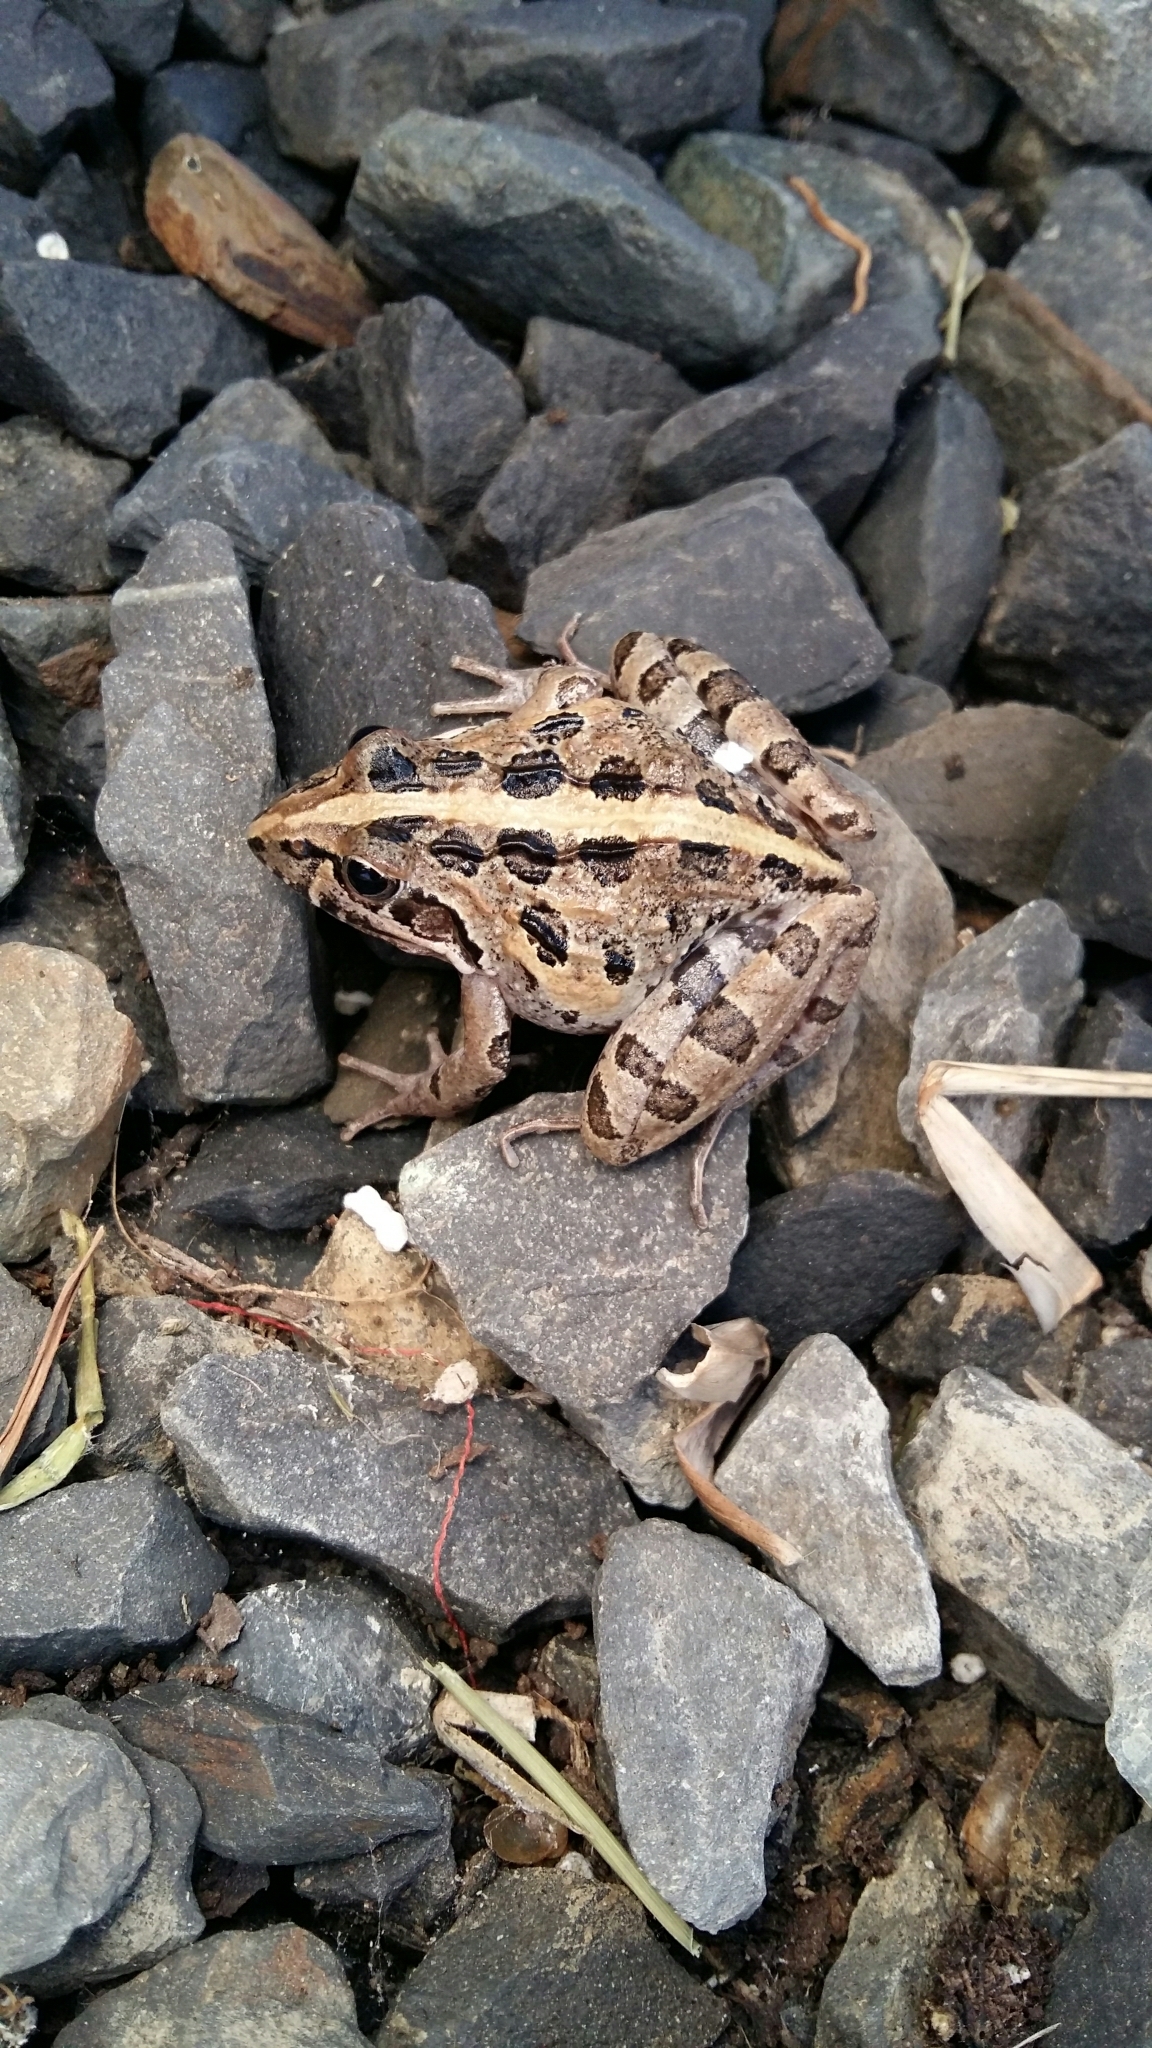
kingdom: Animalia
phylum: Chordata
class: Amphibia
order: Anura
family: Pyxicephalidae
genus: Strongylopus
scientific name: Strongylopus grayii
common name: Gray's stream frog
